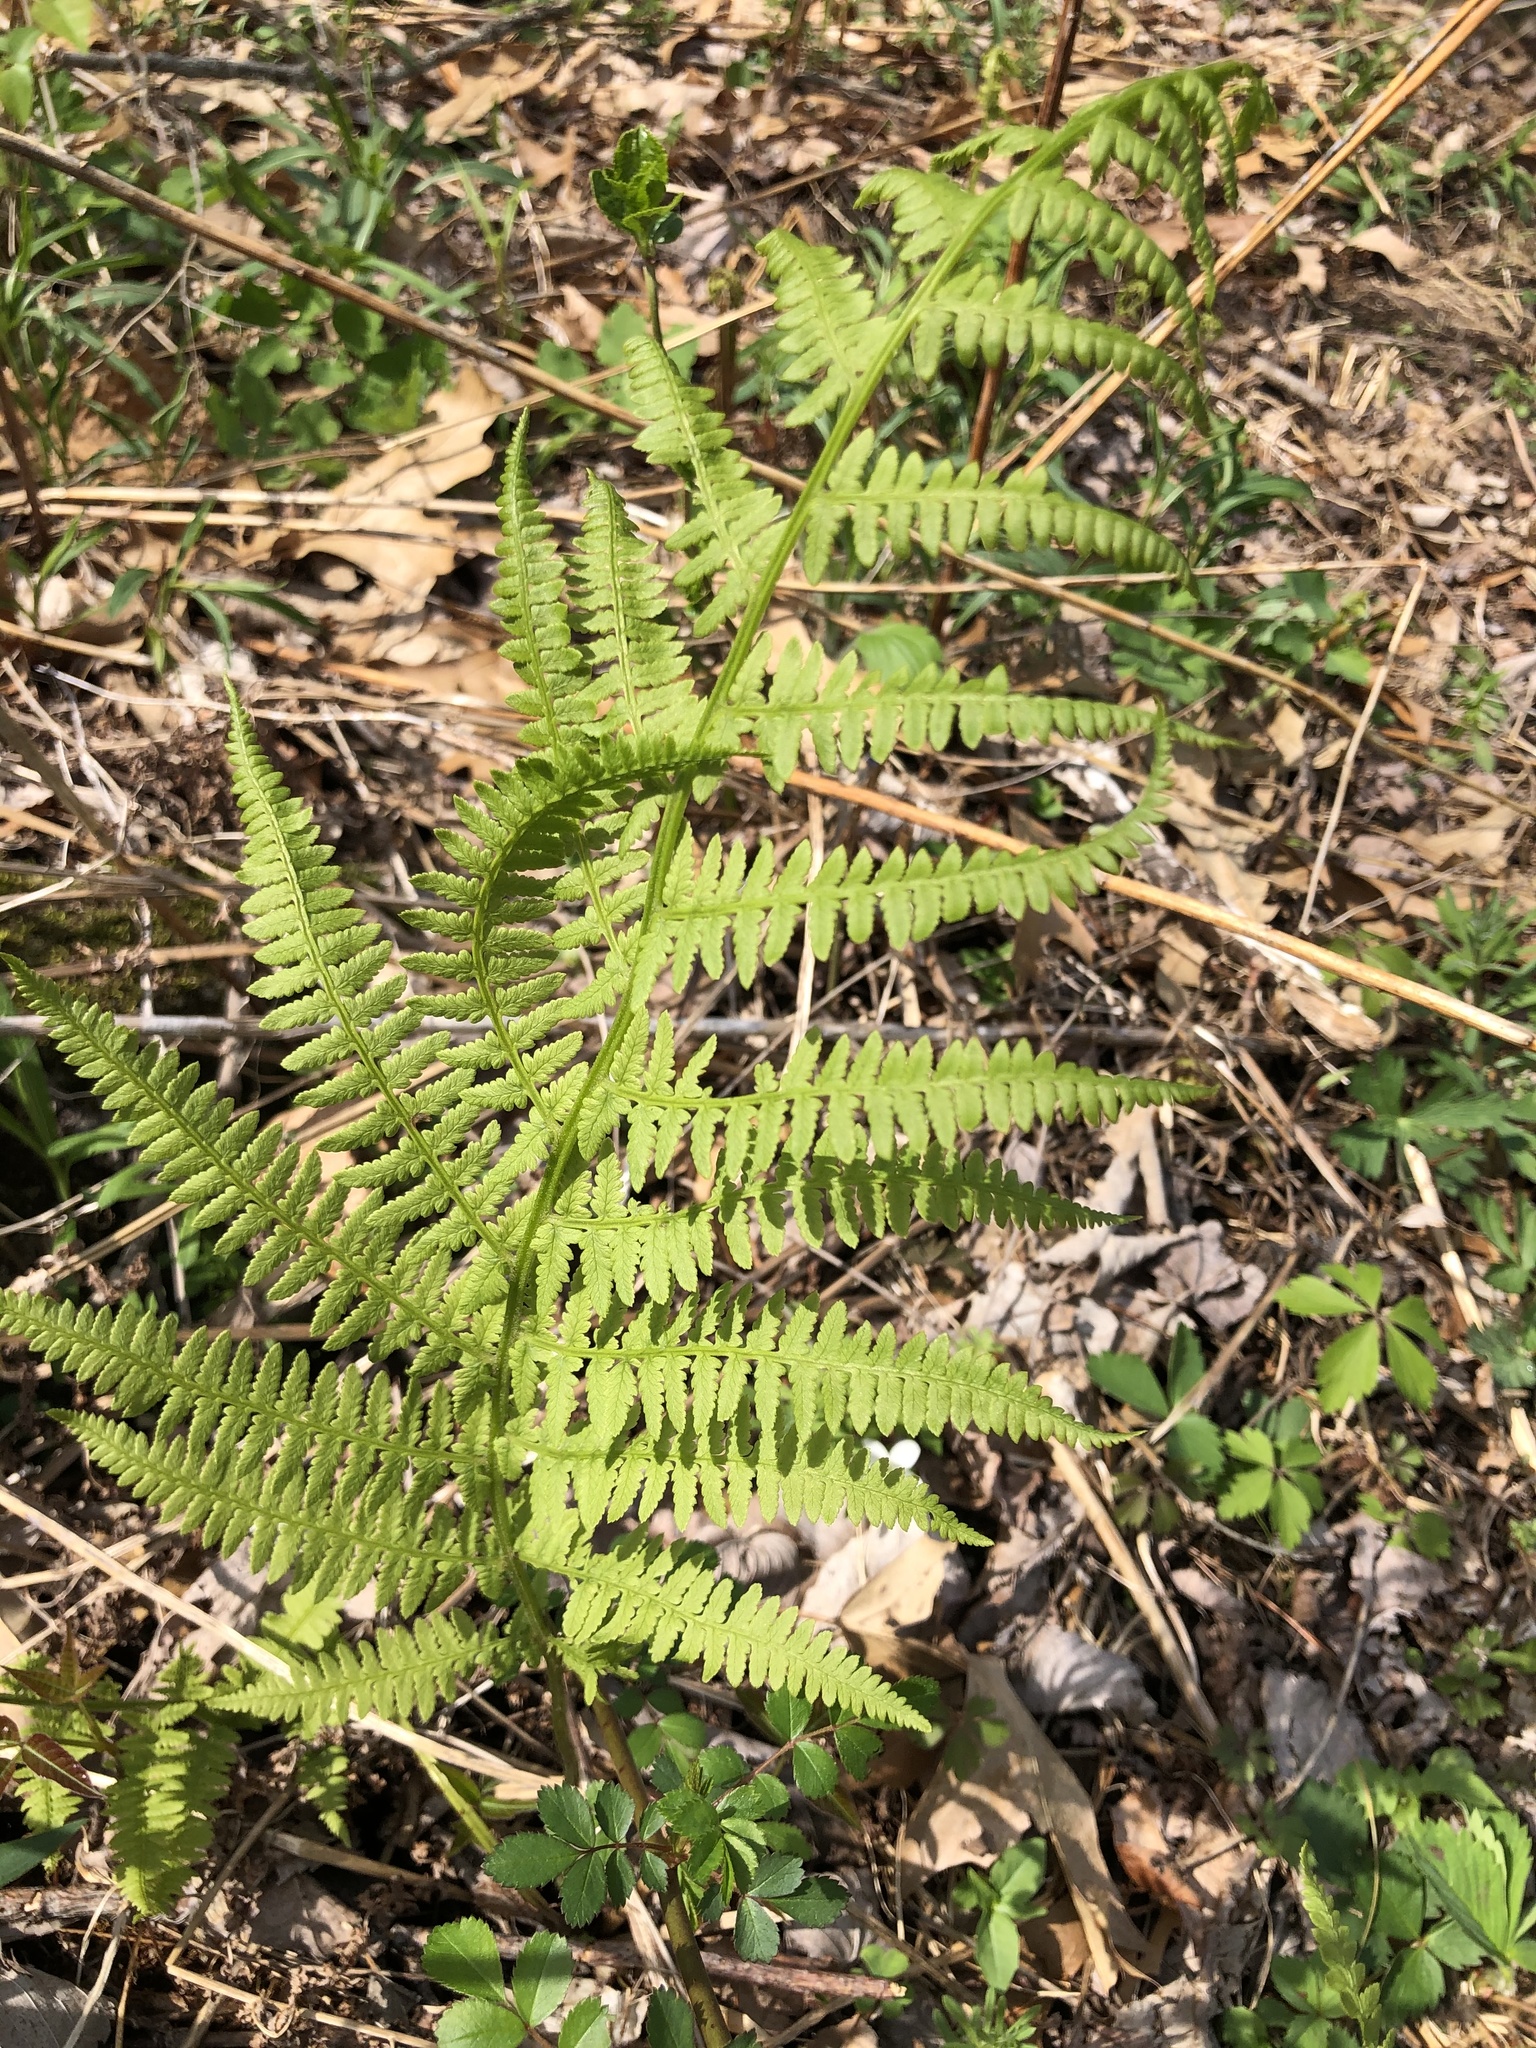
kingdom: Plantae
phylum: Tracheophyta
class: Polypodiopsida
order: Polypodiales
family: Athyriaceae
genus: Athyrium
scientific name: Athyrium angustum
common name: Northern lady fern
